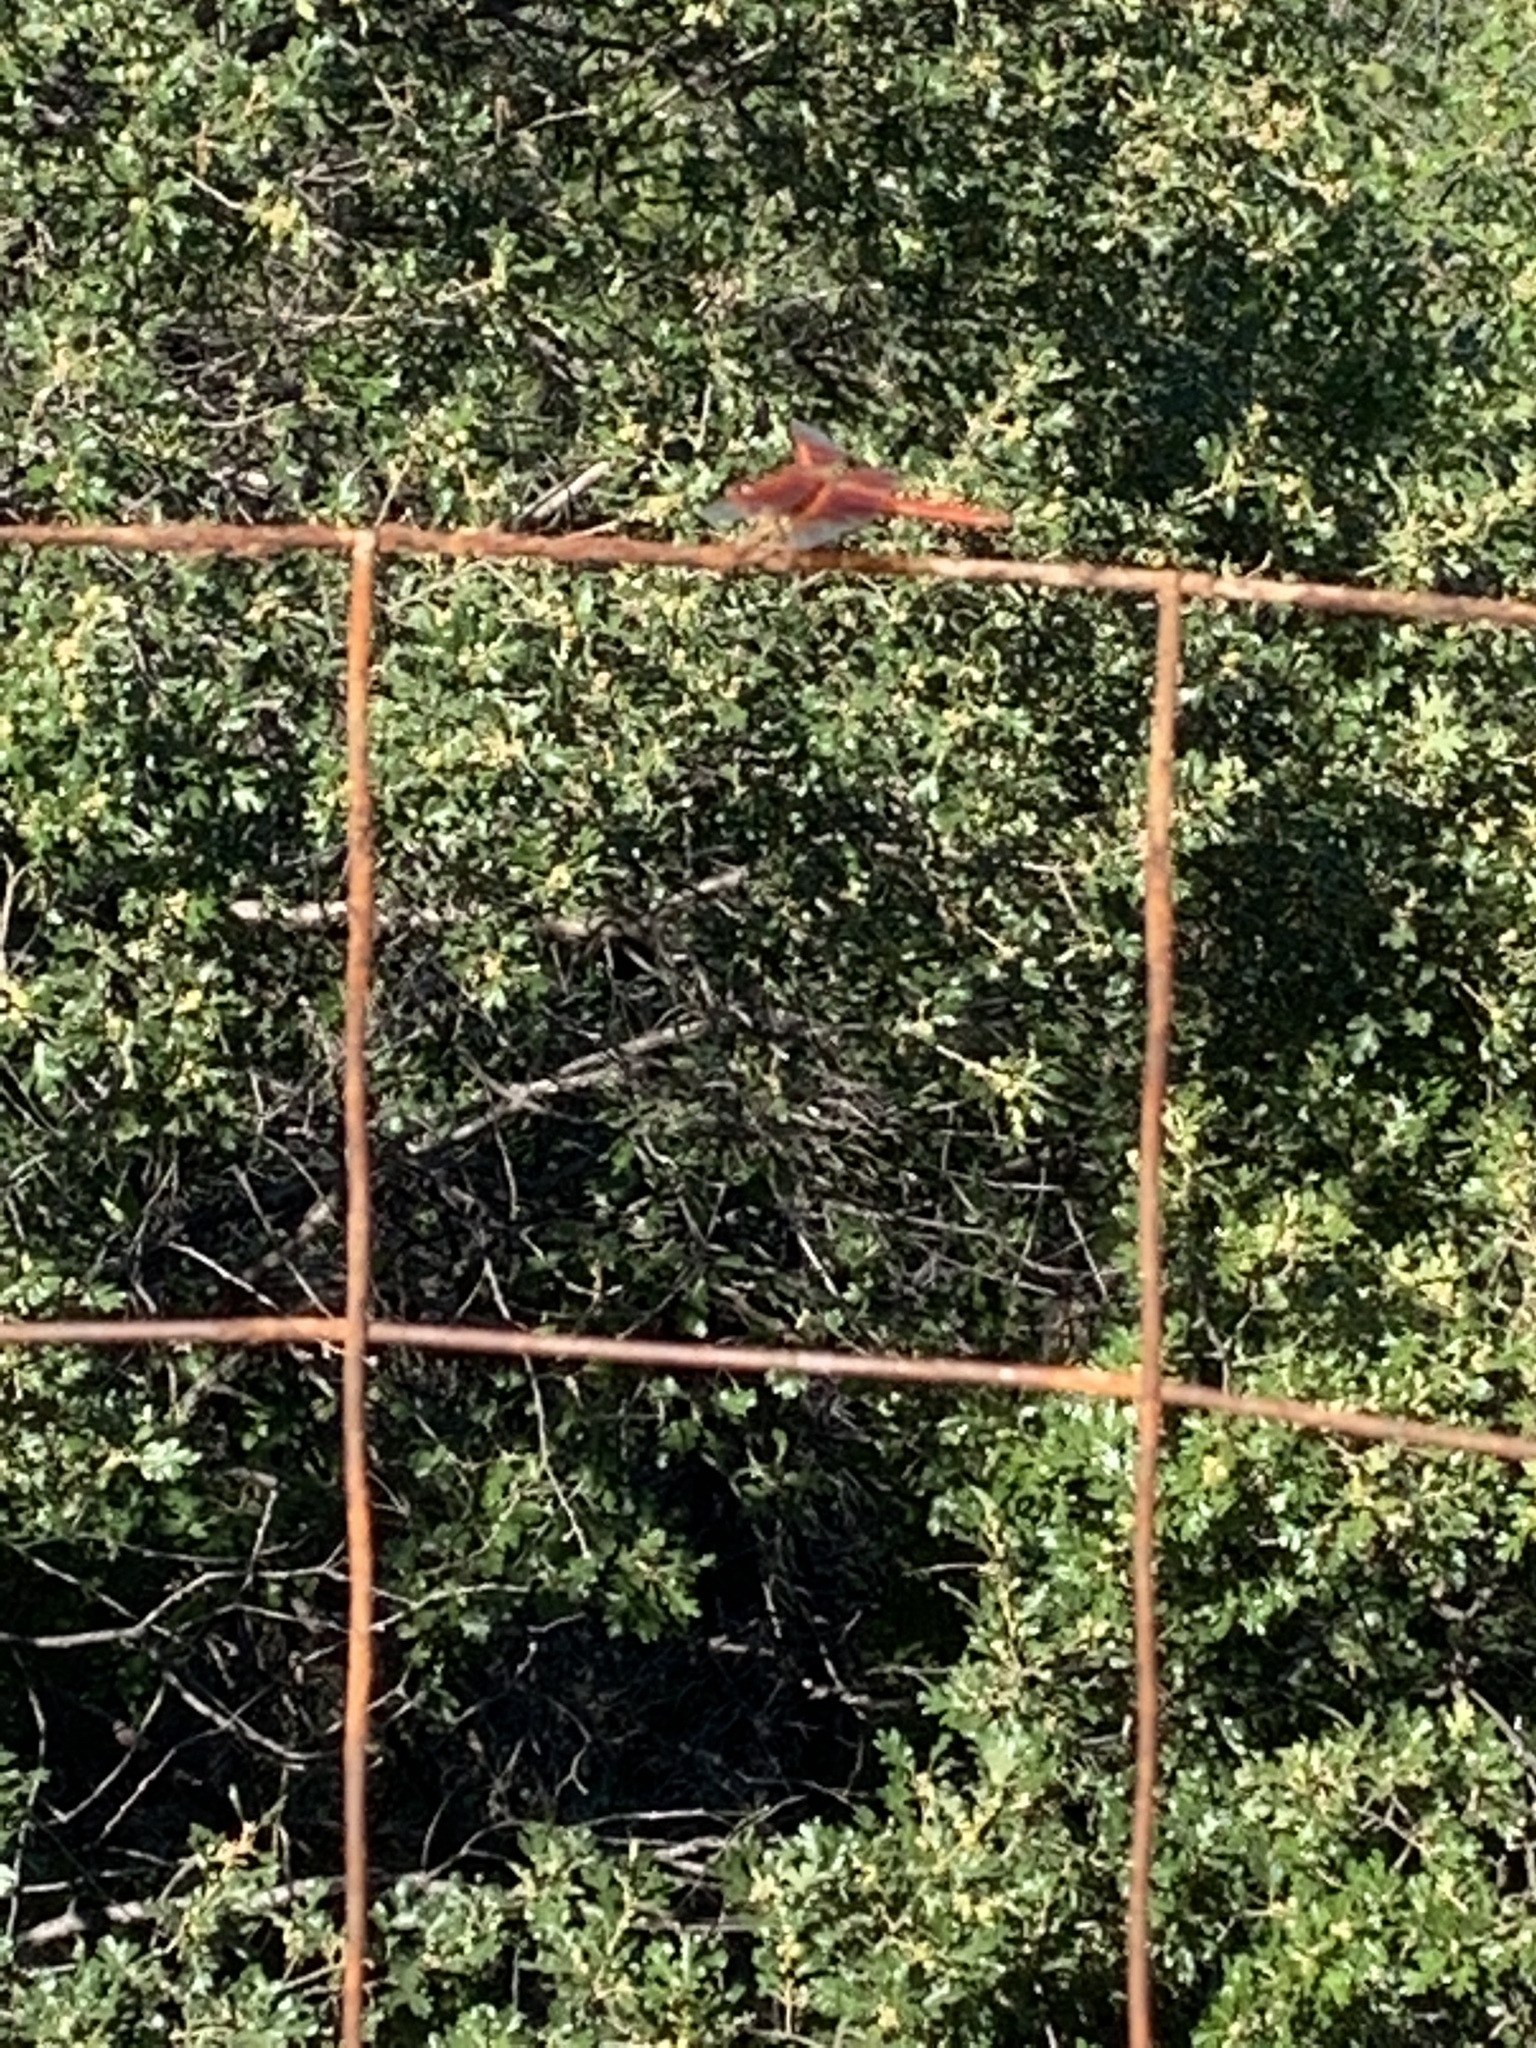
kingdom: Animalia
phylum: Arthropoda
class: Insecta
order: Odonata
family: Libellulidae
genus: Libellula
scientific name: Libellula saturata
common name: Flame skimmer
